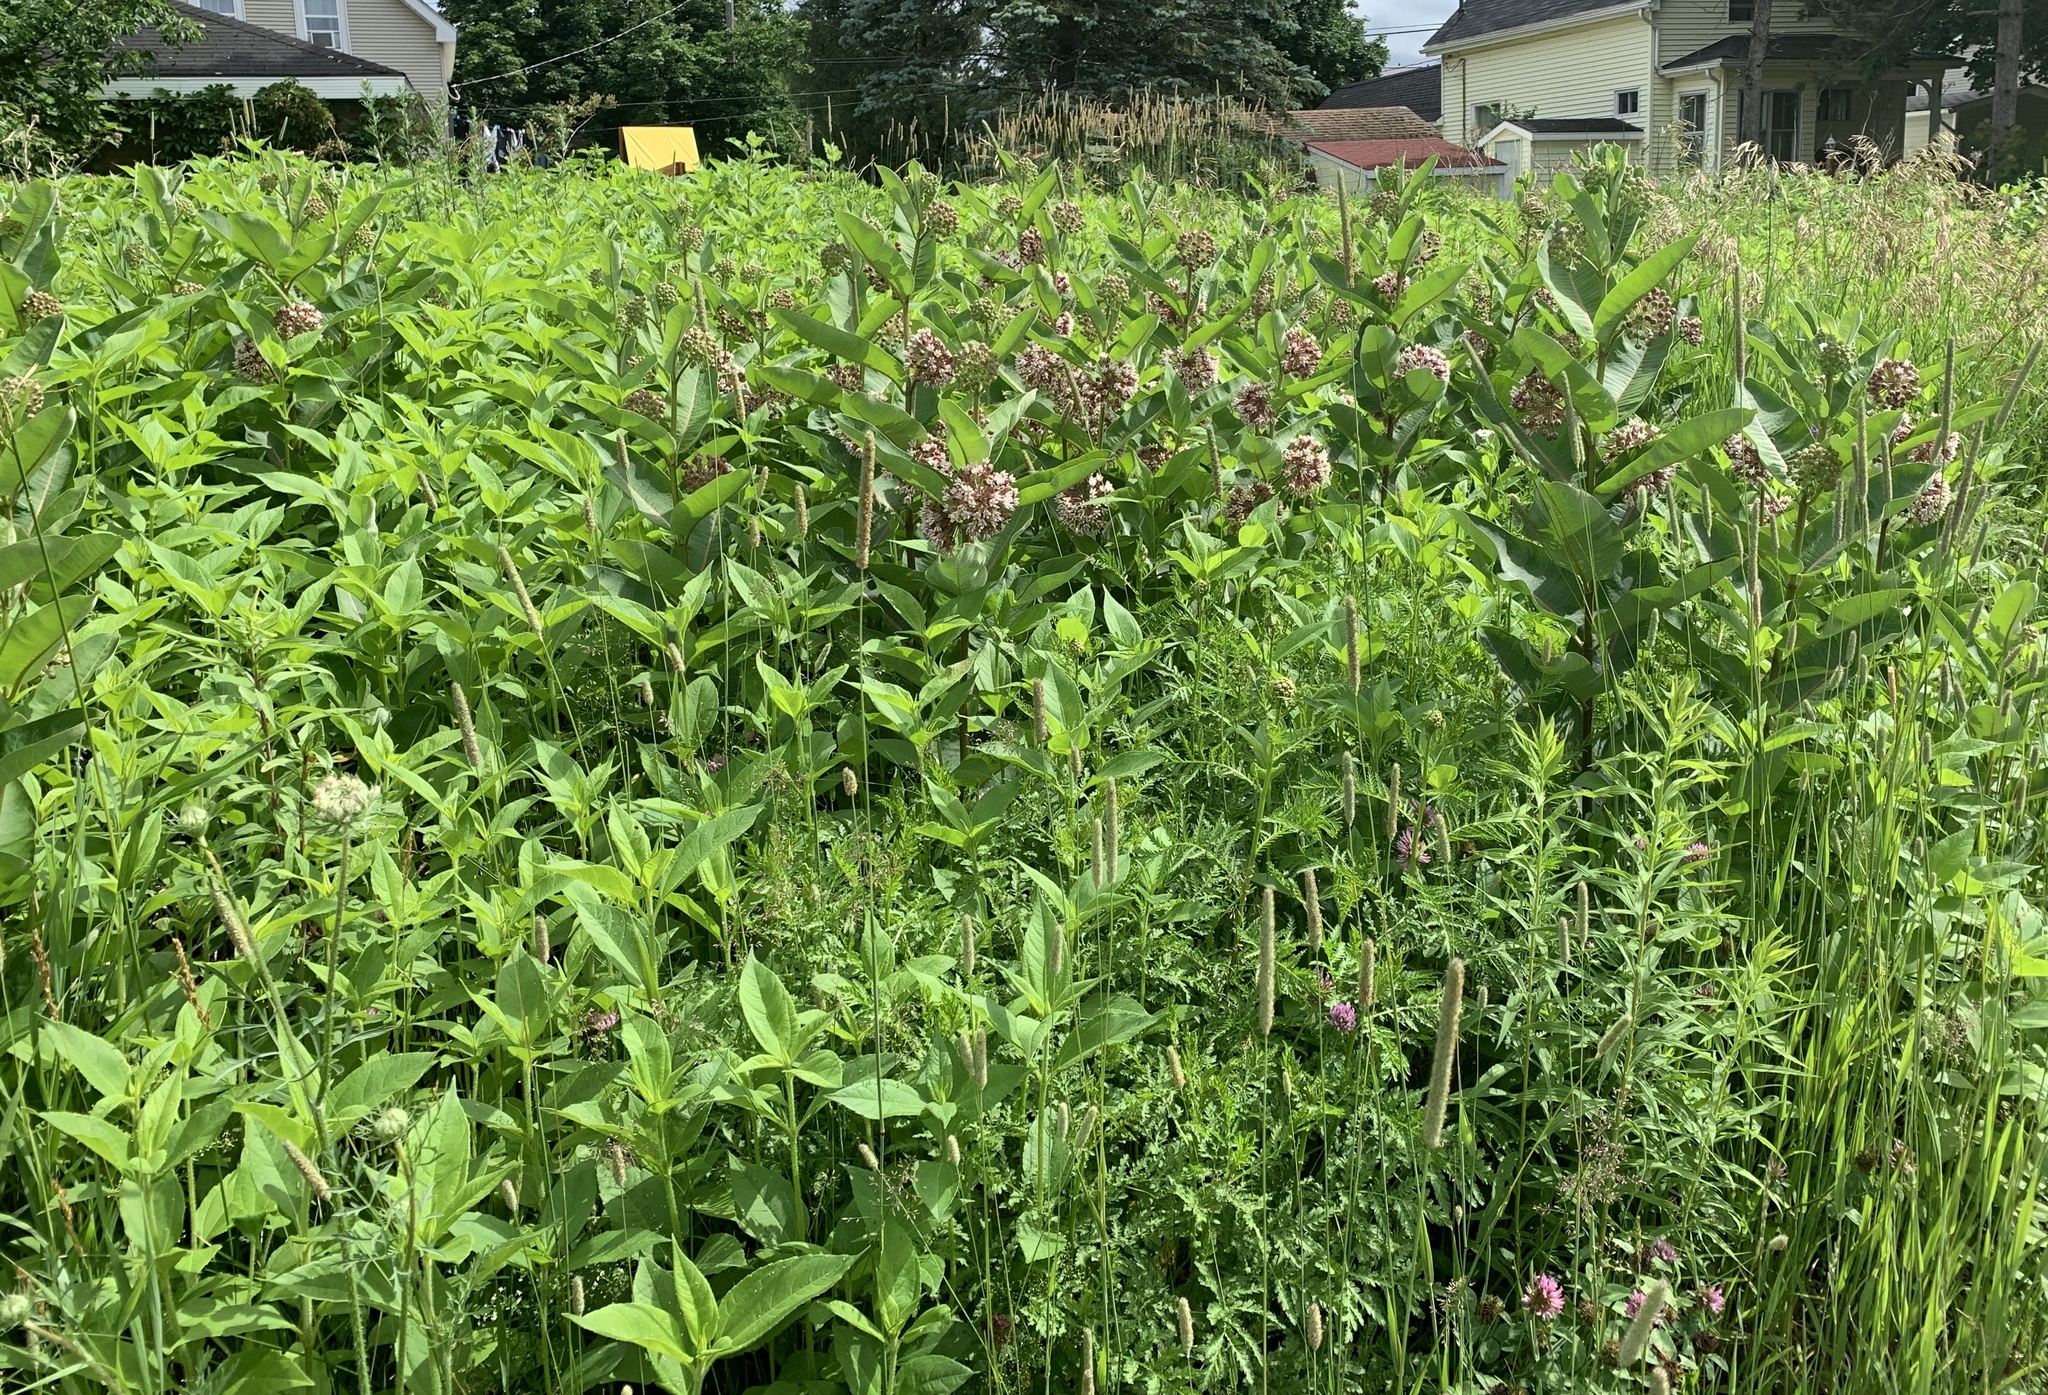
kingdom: Plantae
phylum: Tracheophyta
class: Magnoliopsida
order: Gentianales
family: Apocynaceae
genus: Asclepias
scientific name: Asclepias syriaca
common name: Common milkweed
